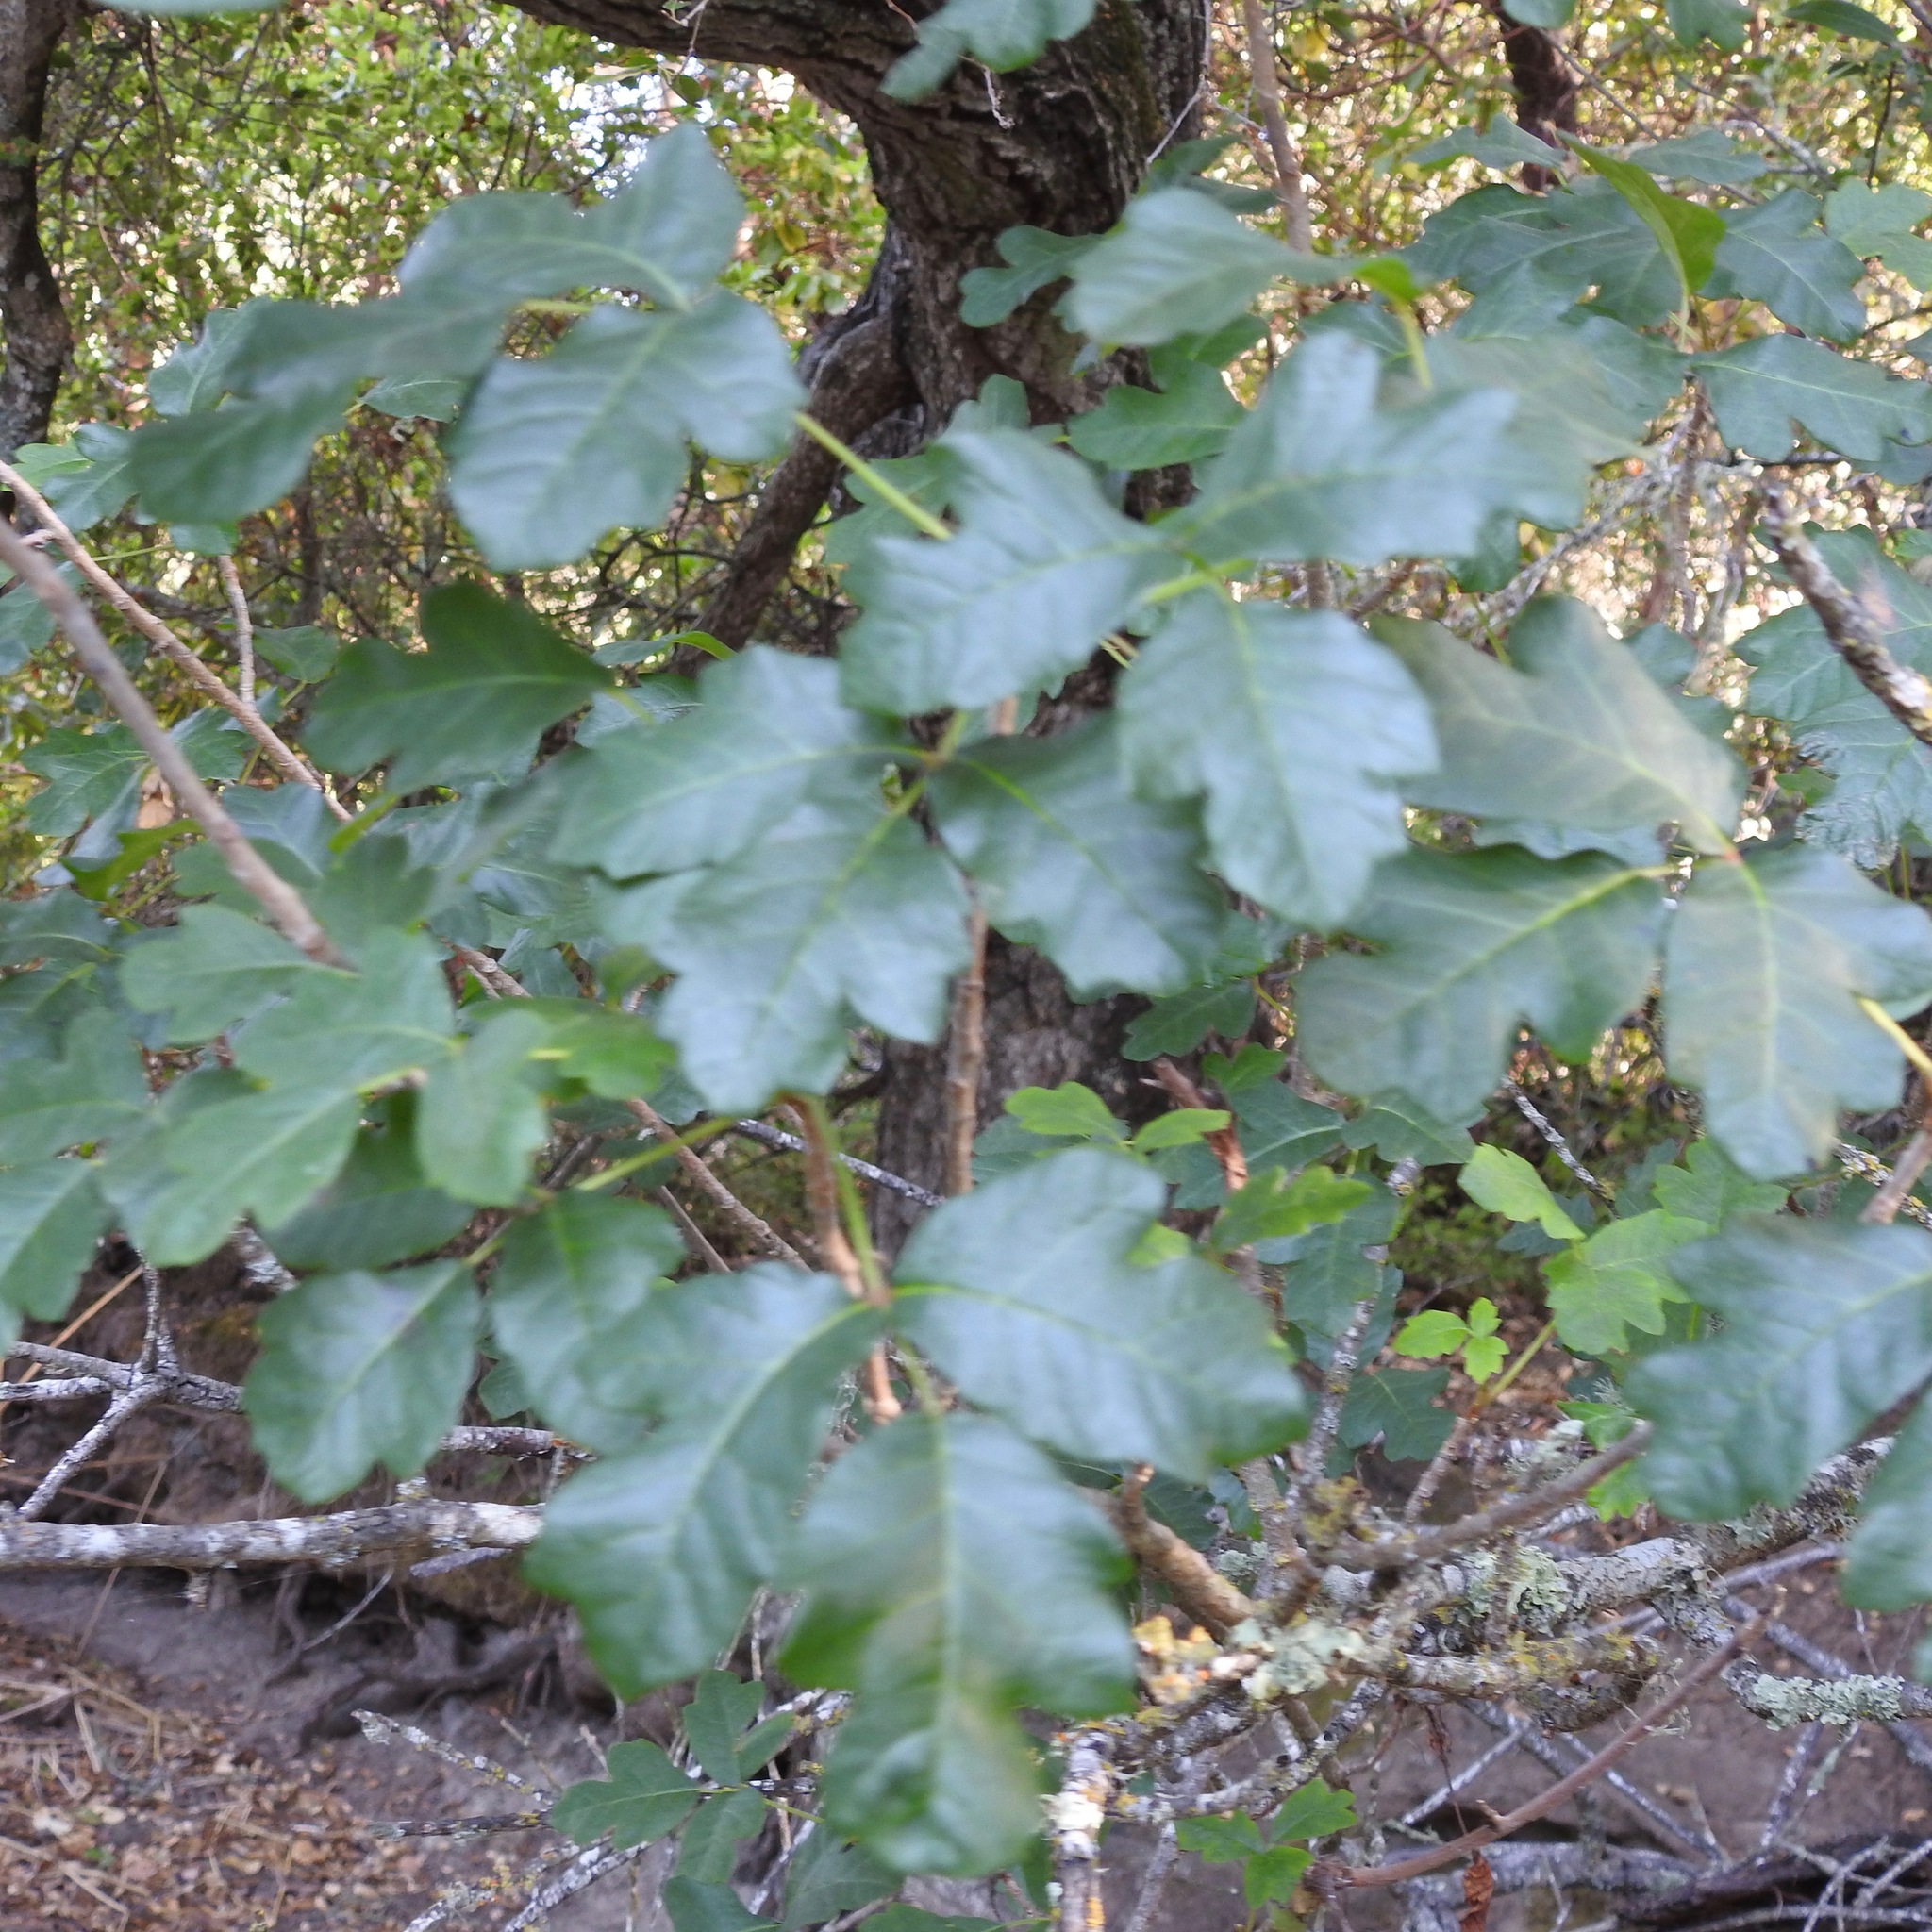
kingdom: Plantae
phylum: Tracheophyta
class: Magnoliopsida
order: Sapindales
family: Anacardiaceae
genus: Toxicodendron
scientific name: Toxicodendron diversilobum
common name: Pacific poison-oak
